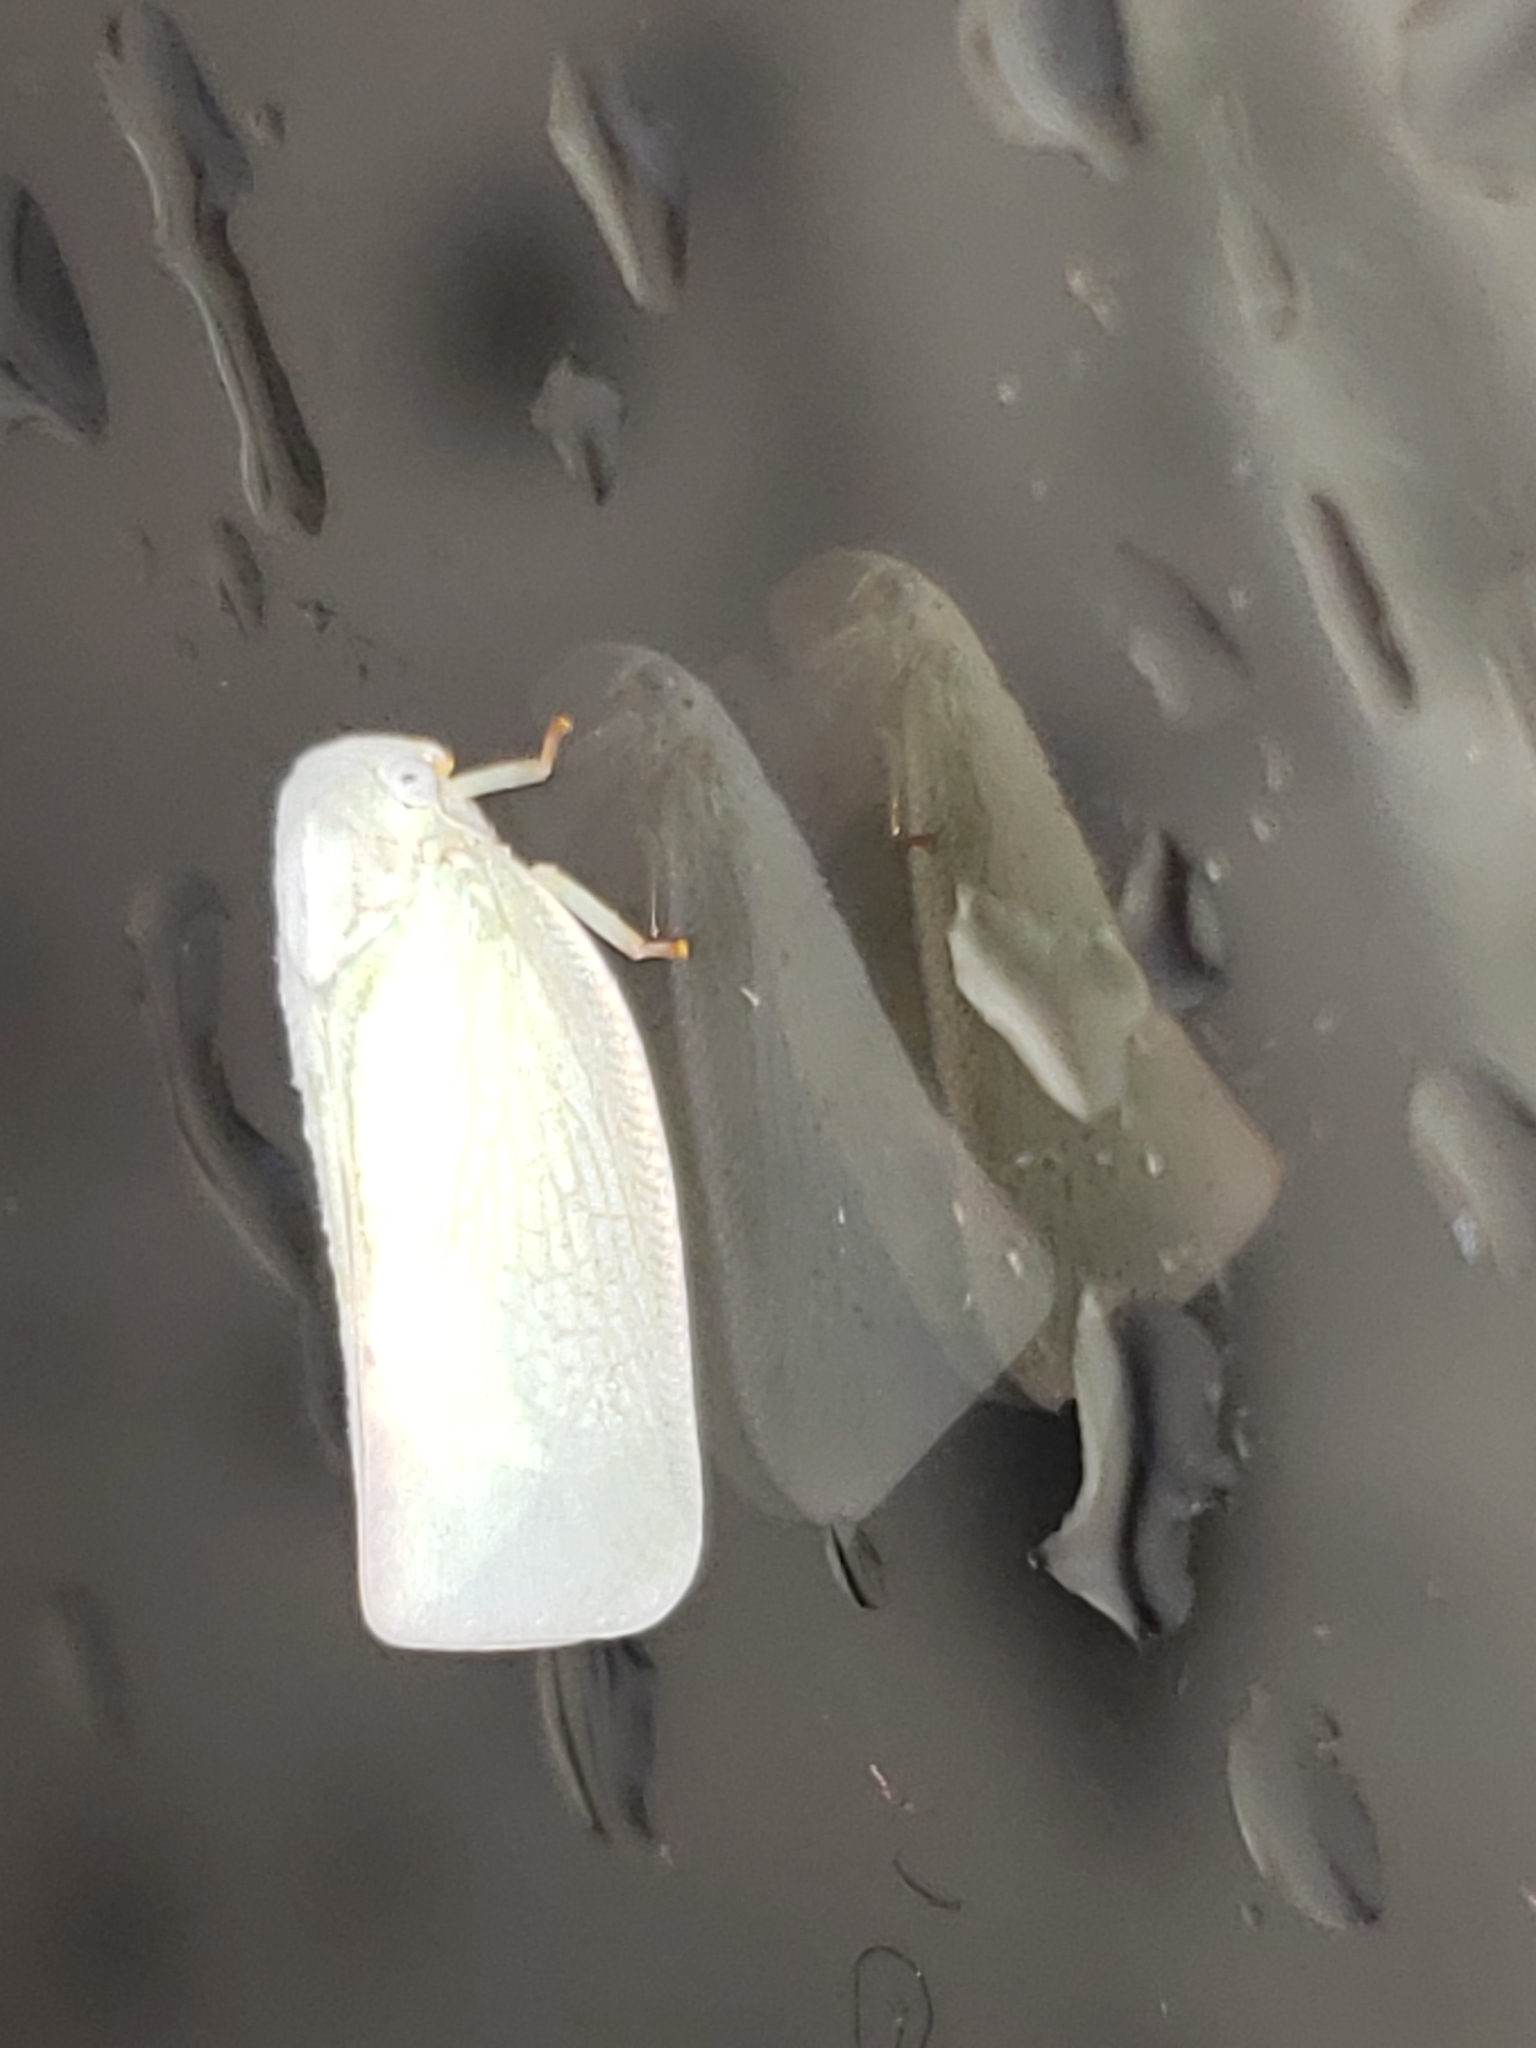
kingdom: Animalia
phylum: Arthropoda
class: Insecta
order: Hemiptera
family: Flatidae
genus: Flatormenis
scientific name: Flatormenis proxima
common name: Northern flatid planthopper
